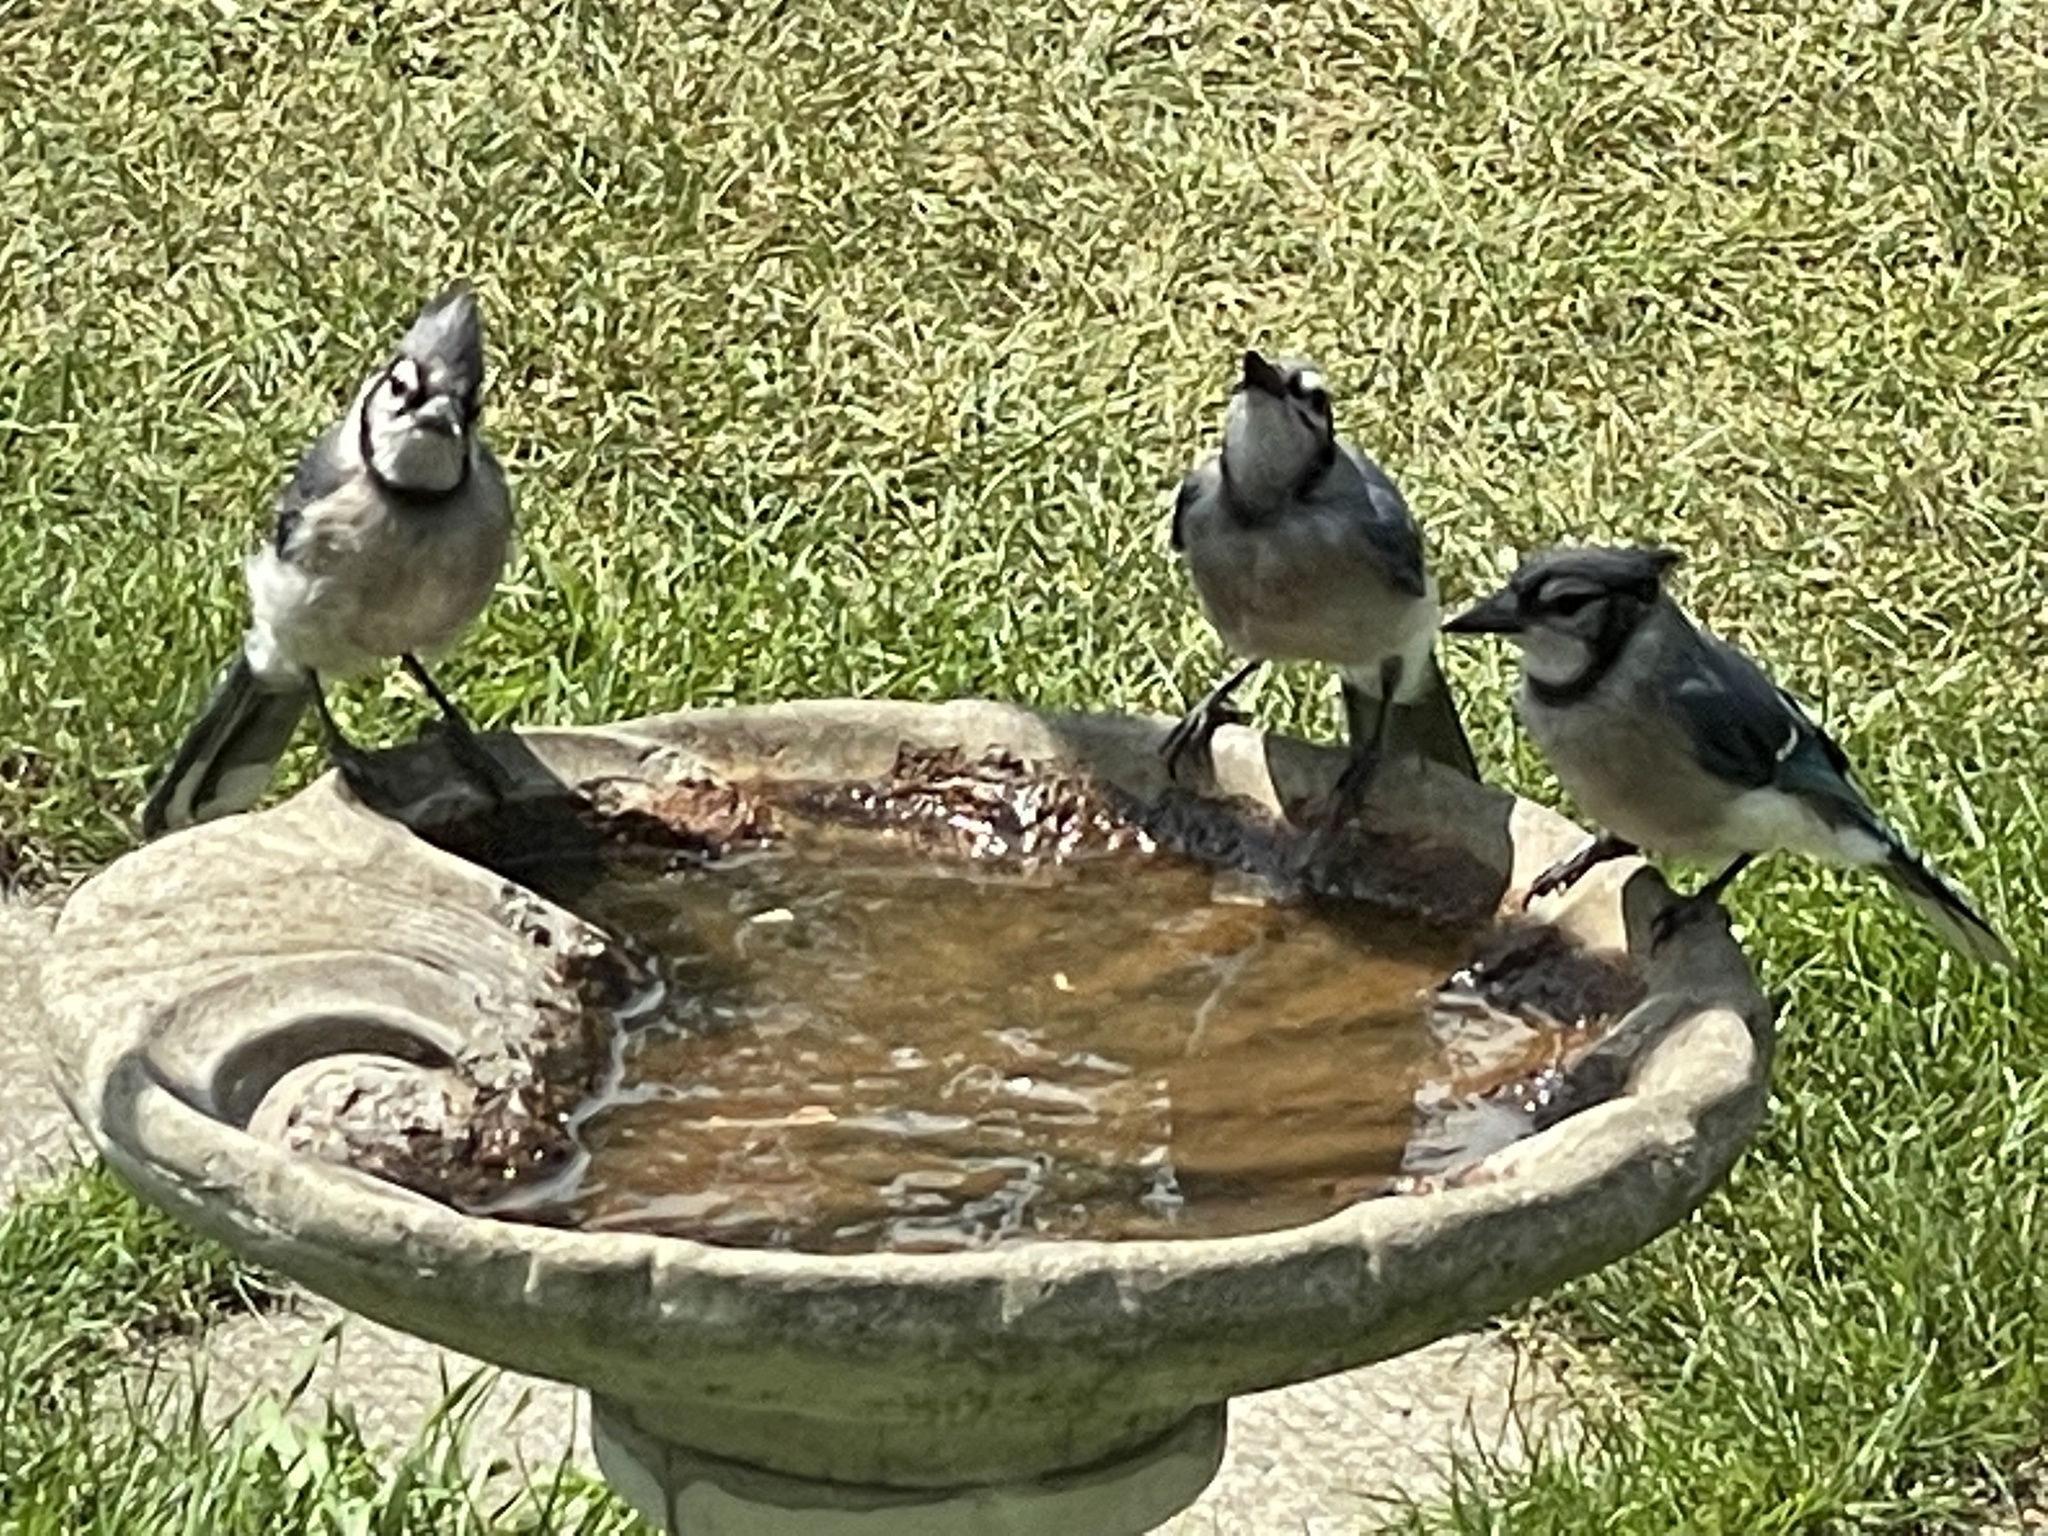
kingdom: Animalia
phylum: Chordata
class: Aves
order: Passeriformes
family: Corvidae
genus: Cyanocitta
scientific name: Cyanocitta cristata
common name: Blue jay
